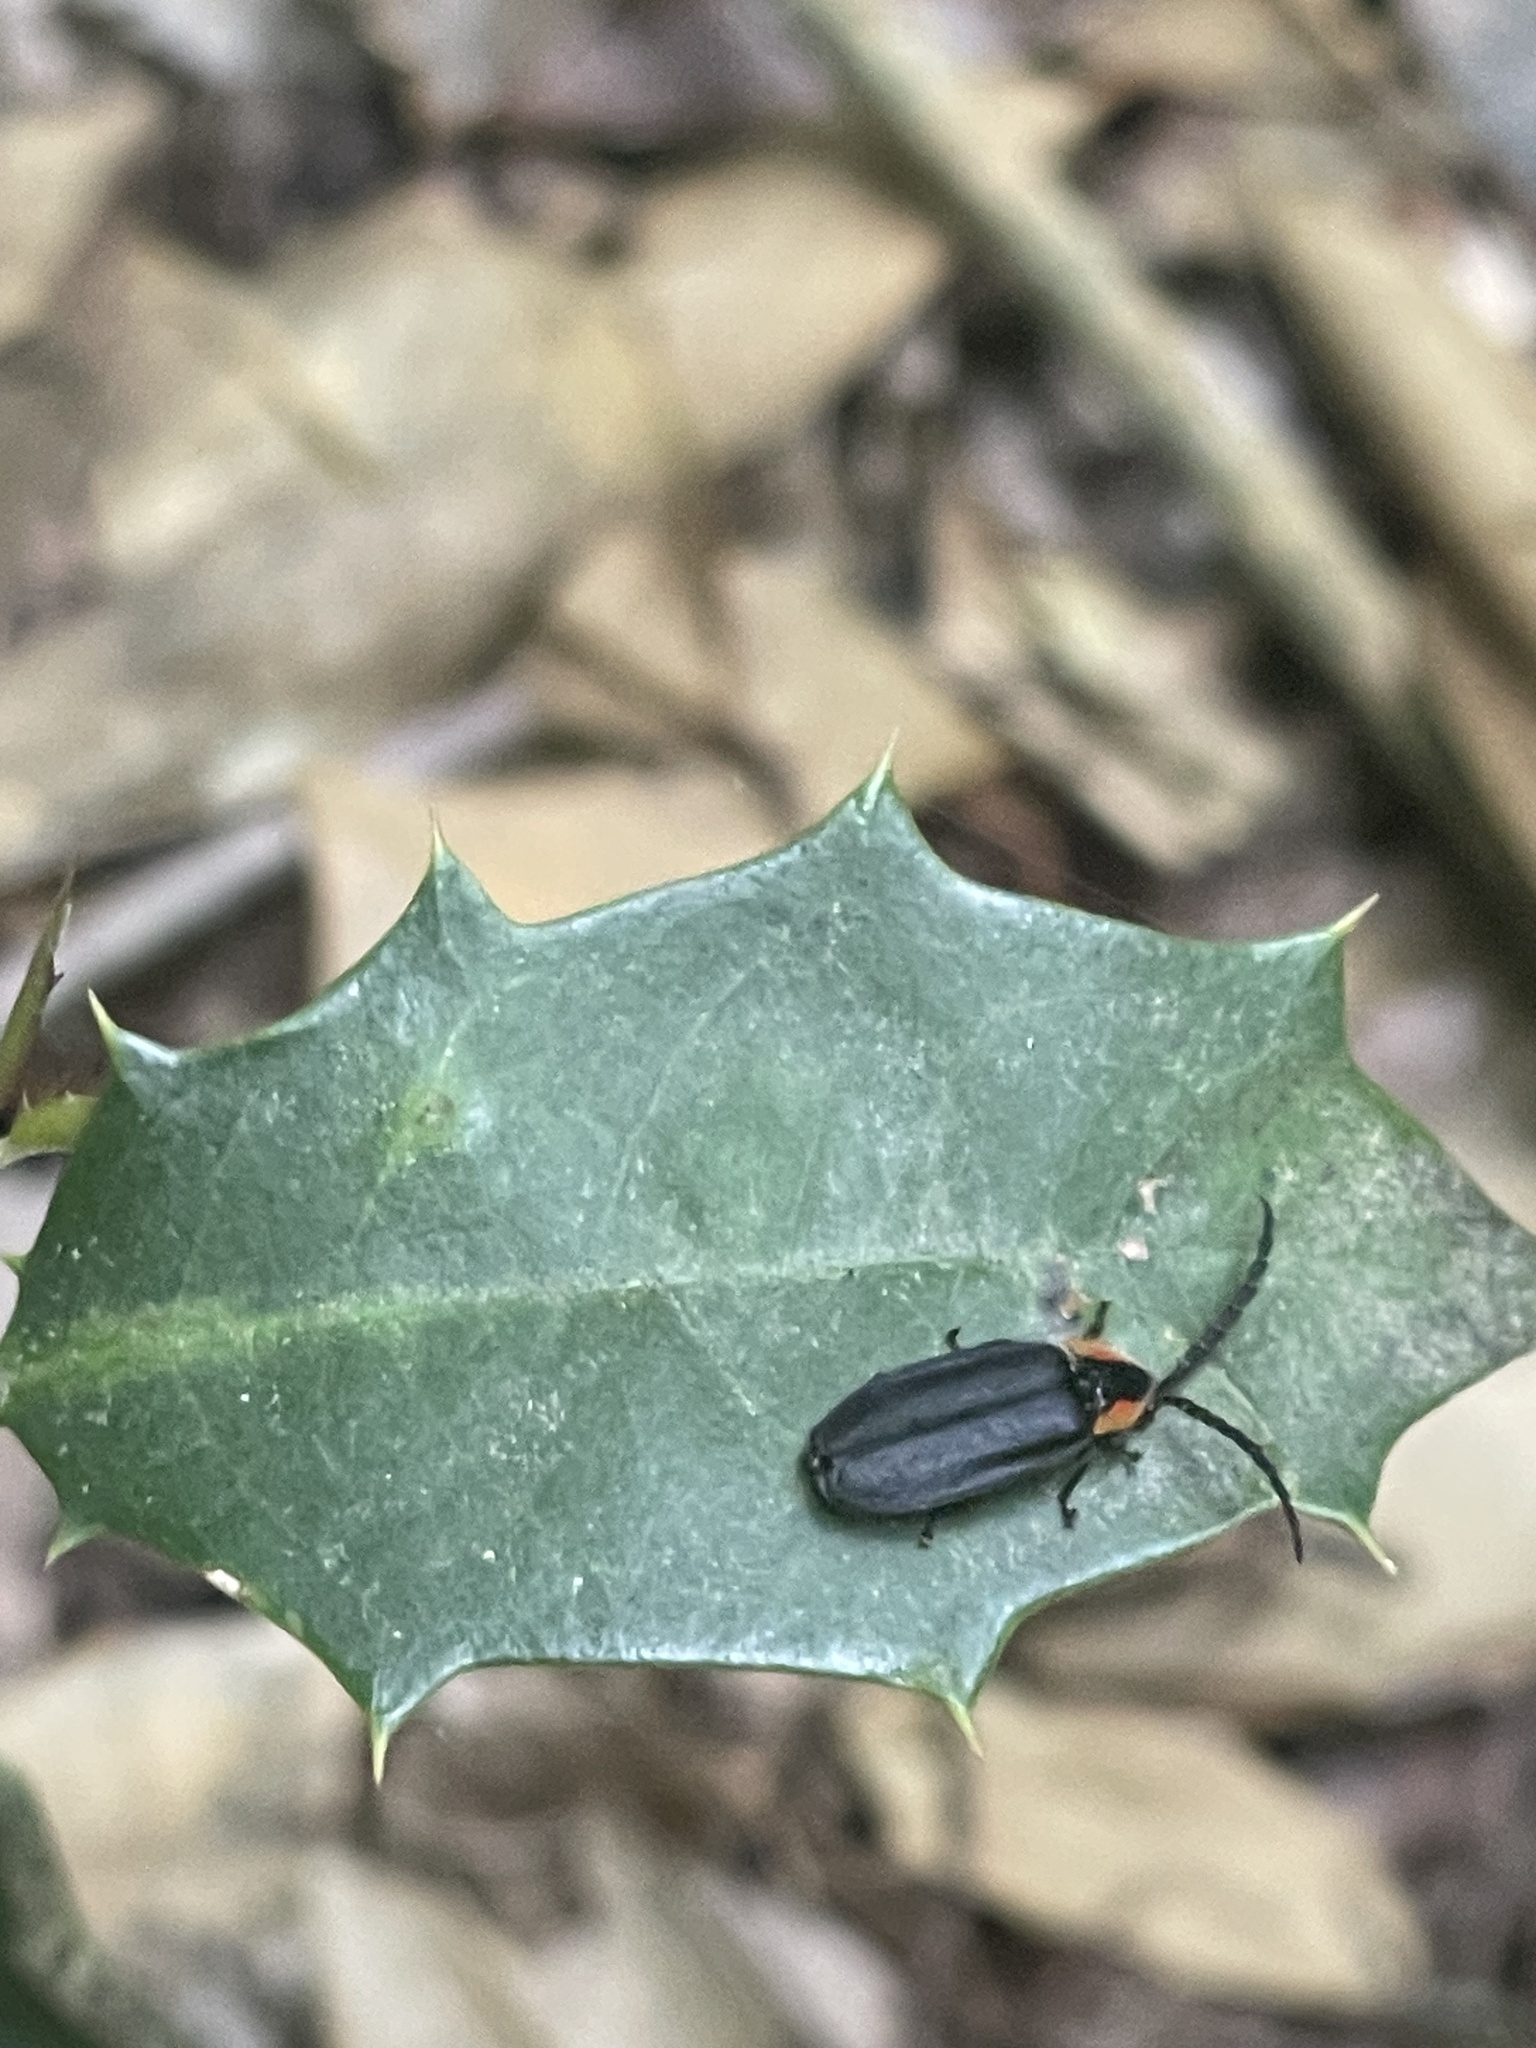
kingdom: Animalia
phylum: Arthropoda
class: Insecta
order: Coleoptera
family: Lampyridae
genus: Lucidota
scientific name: Lucidota atra
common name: Black firefly
